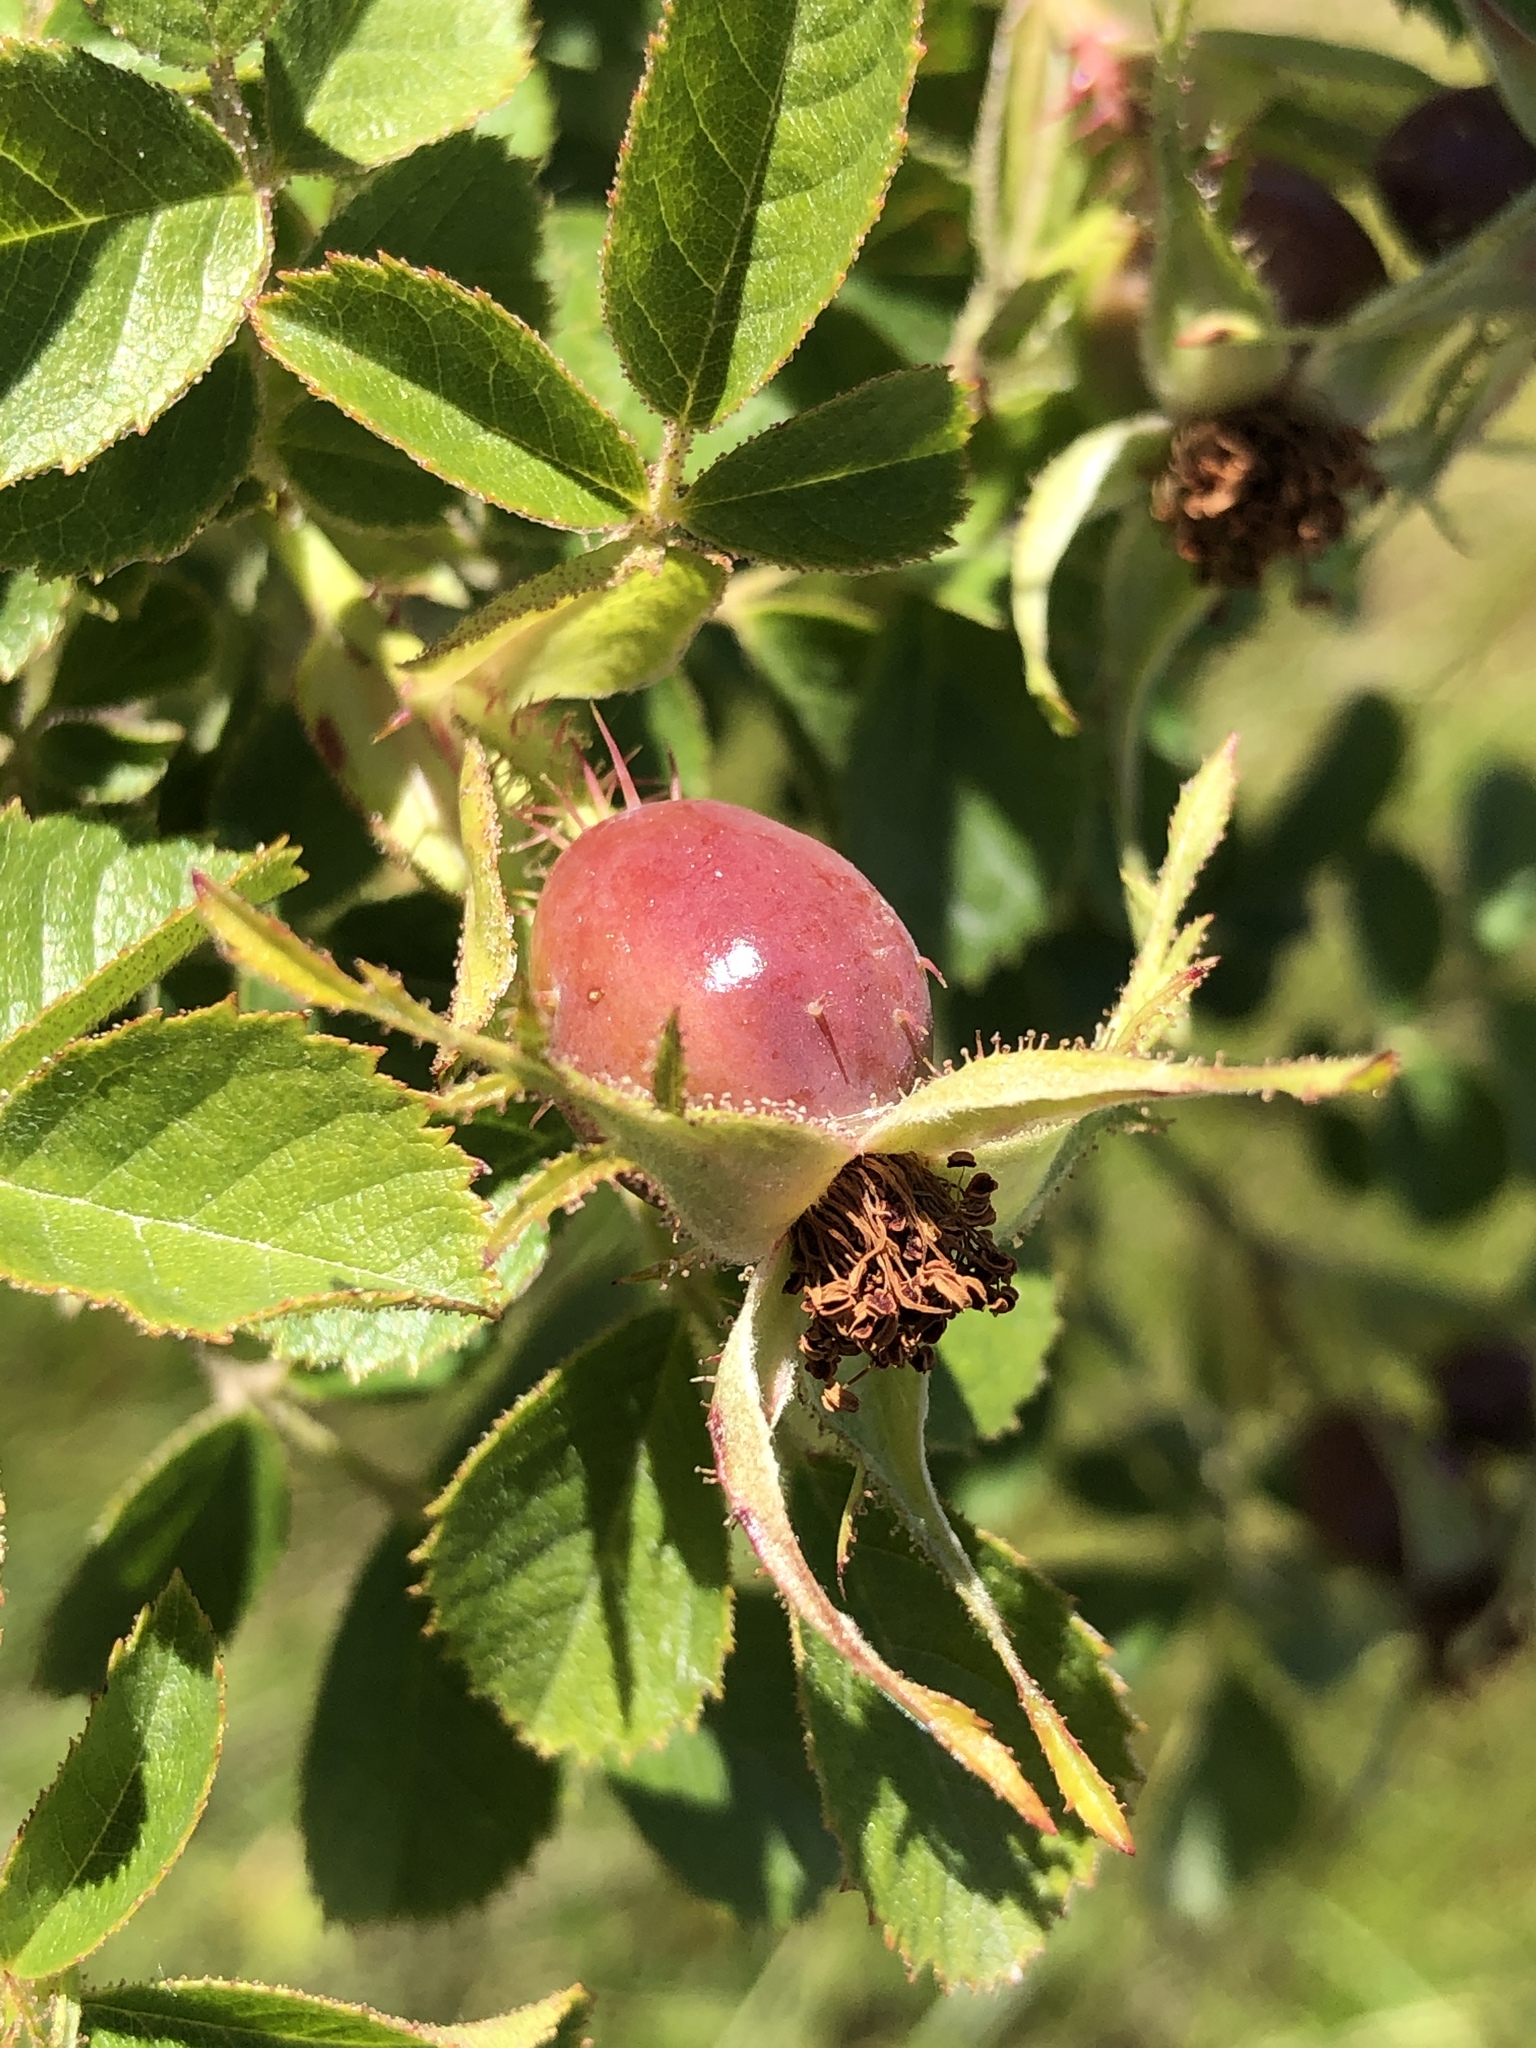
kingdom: Plantae
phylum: Tracheophyta
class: Magnoliopsida
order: Rosales
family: Rosaceae
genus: Rosa
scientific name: Rosa rubiginosa
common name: Sweet-briar
